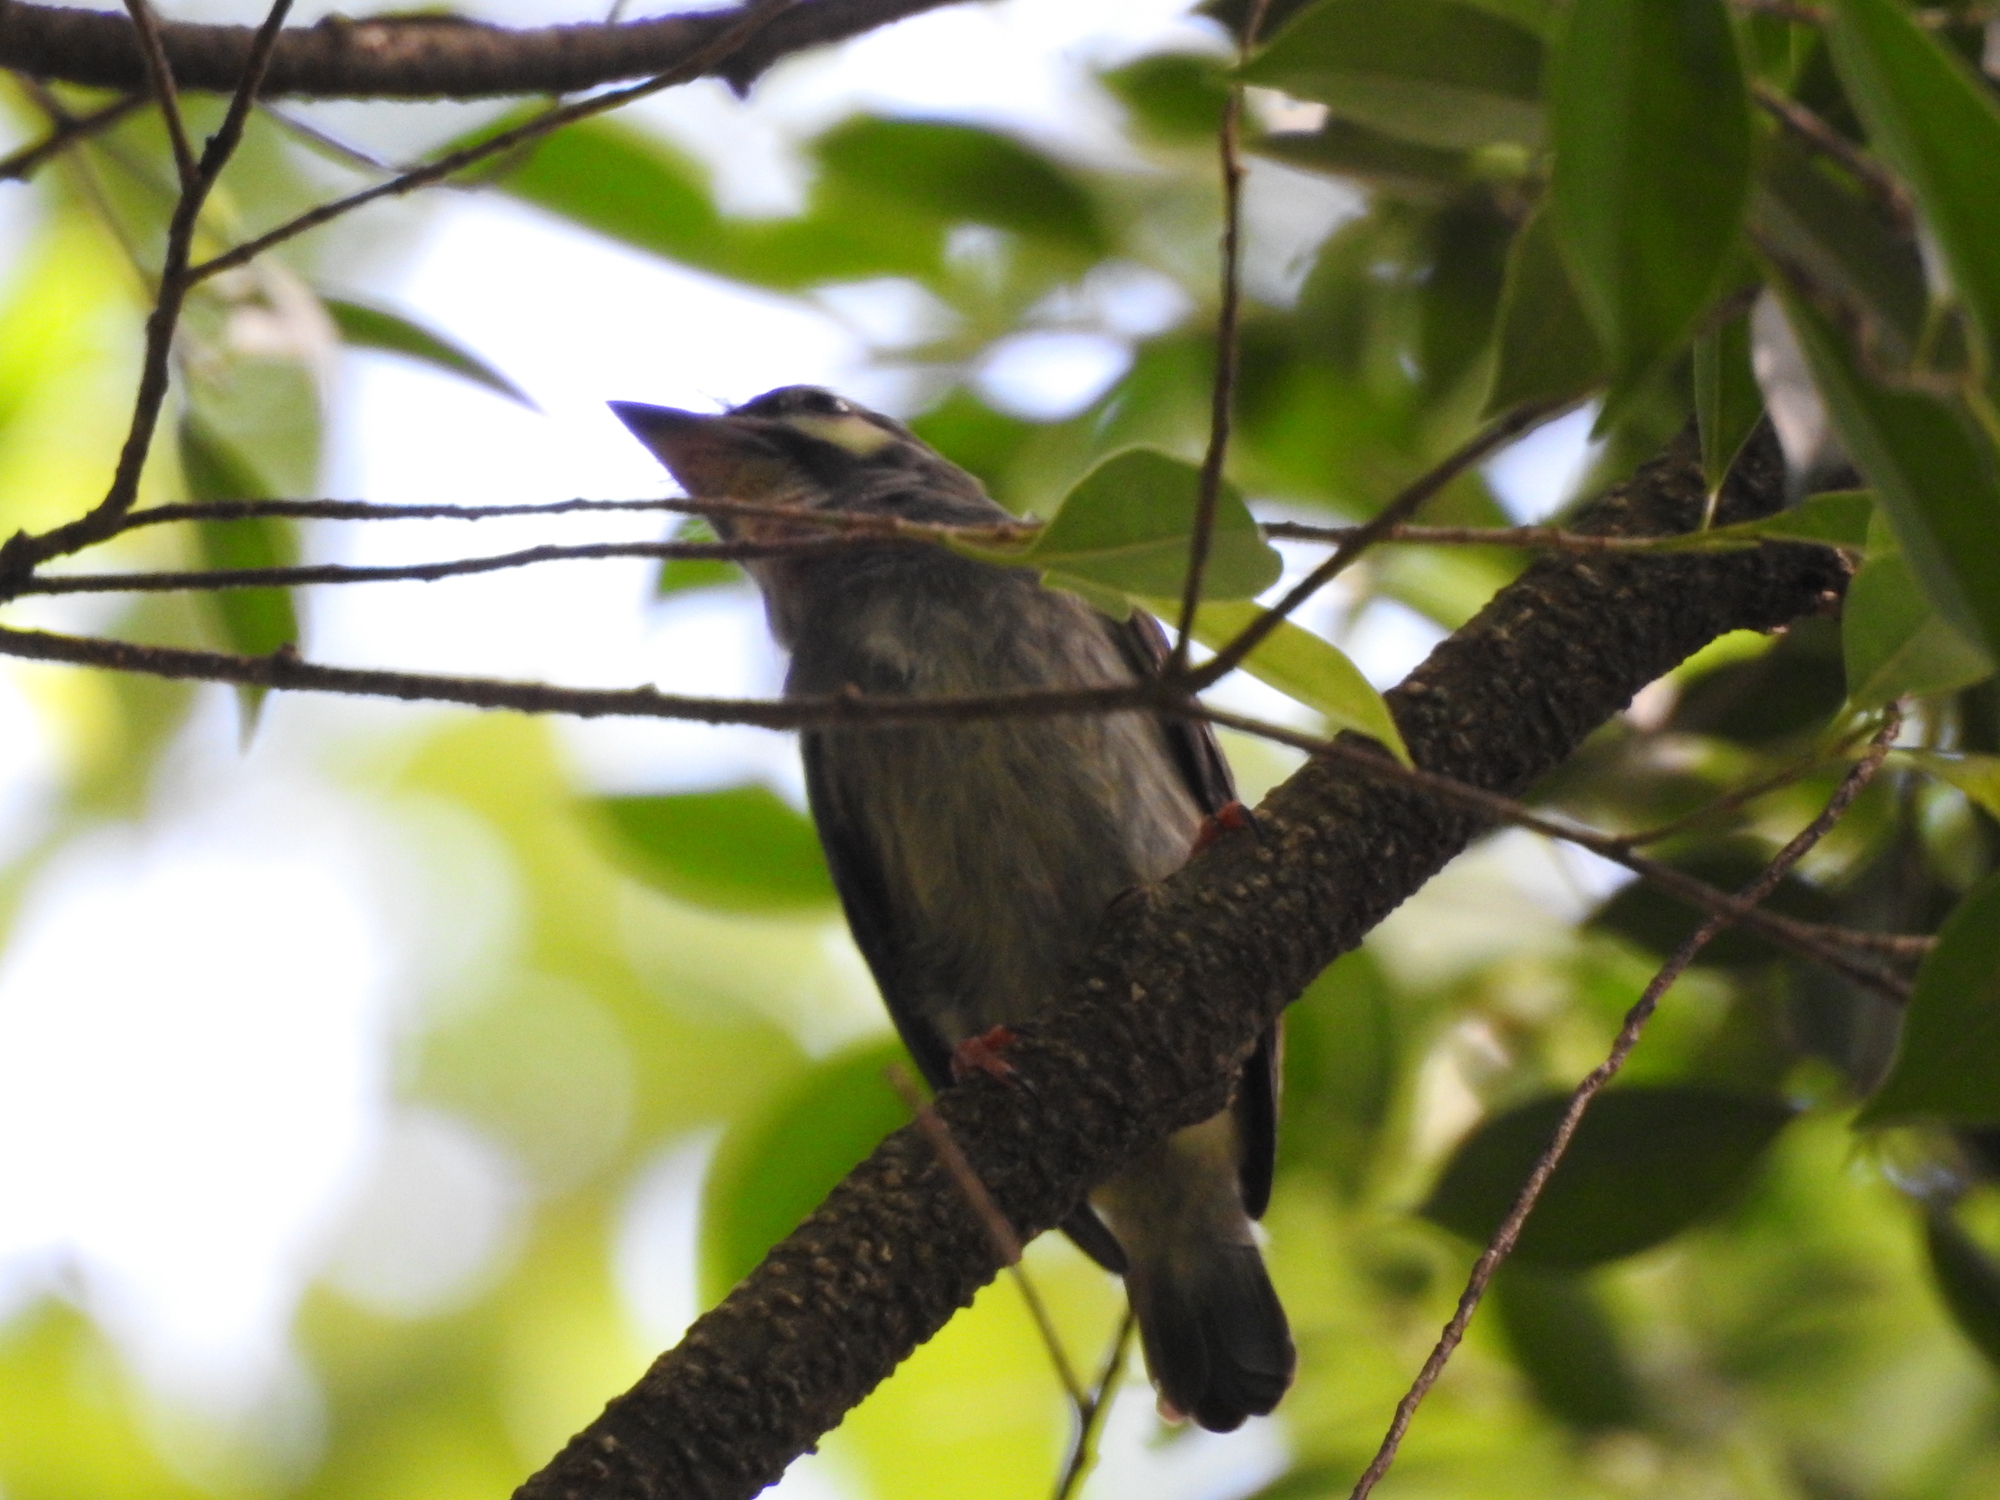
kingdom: Animalia
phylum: Chordata
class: Aves
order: Piciformes
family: Megalaimidae
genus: Psilopogon
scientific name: Psilopogon haemacephalus
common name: Coppersmith barbet
